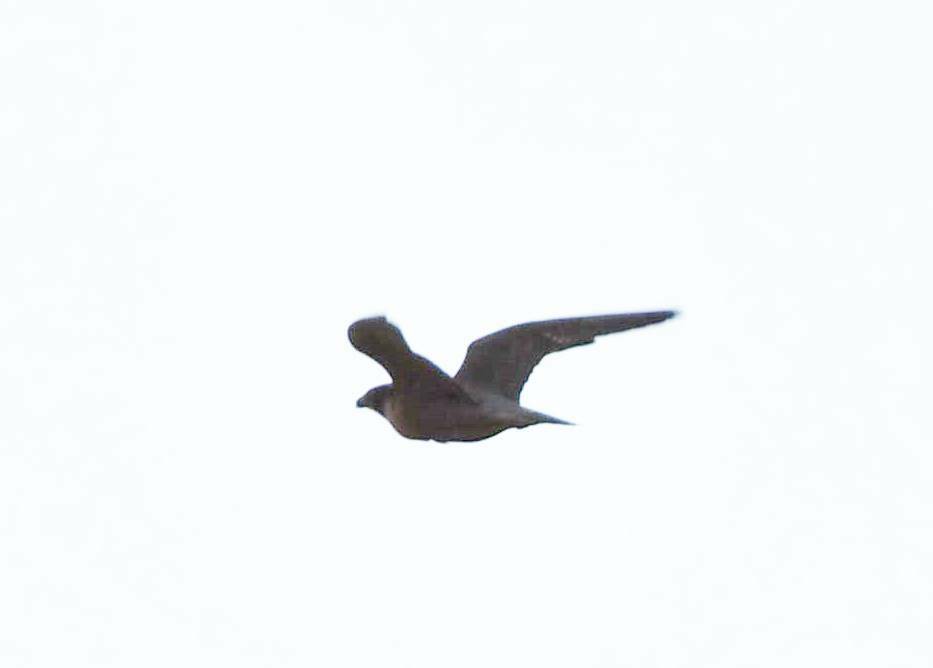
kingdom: Animalia
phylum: Chordata
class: Aves
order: Falconiformes
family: Falconidae
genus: Falco
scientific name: Falco peregrinus
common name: Peregrine falcon
